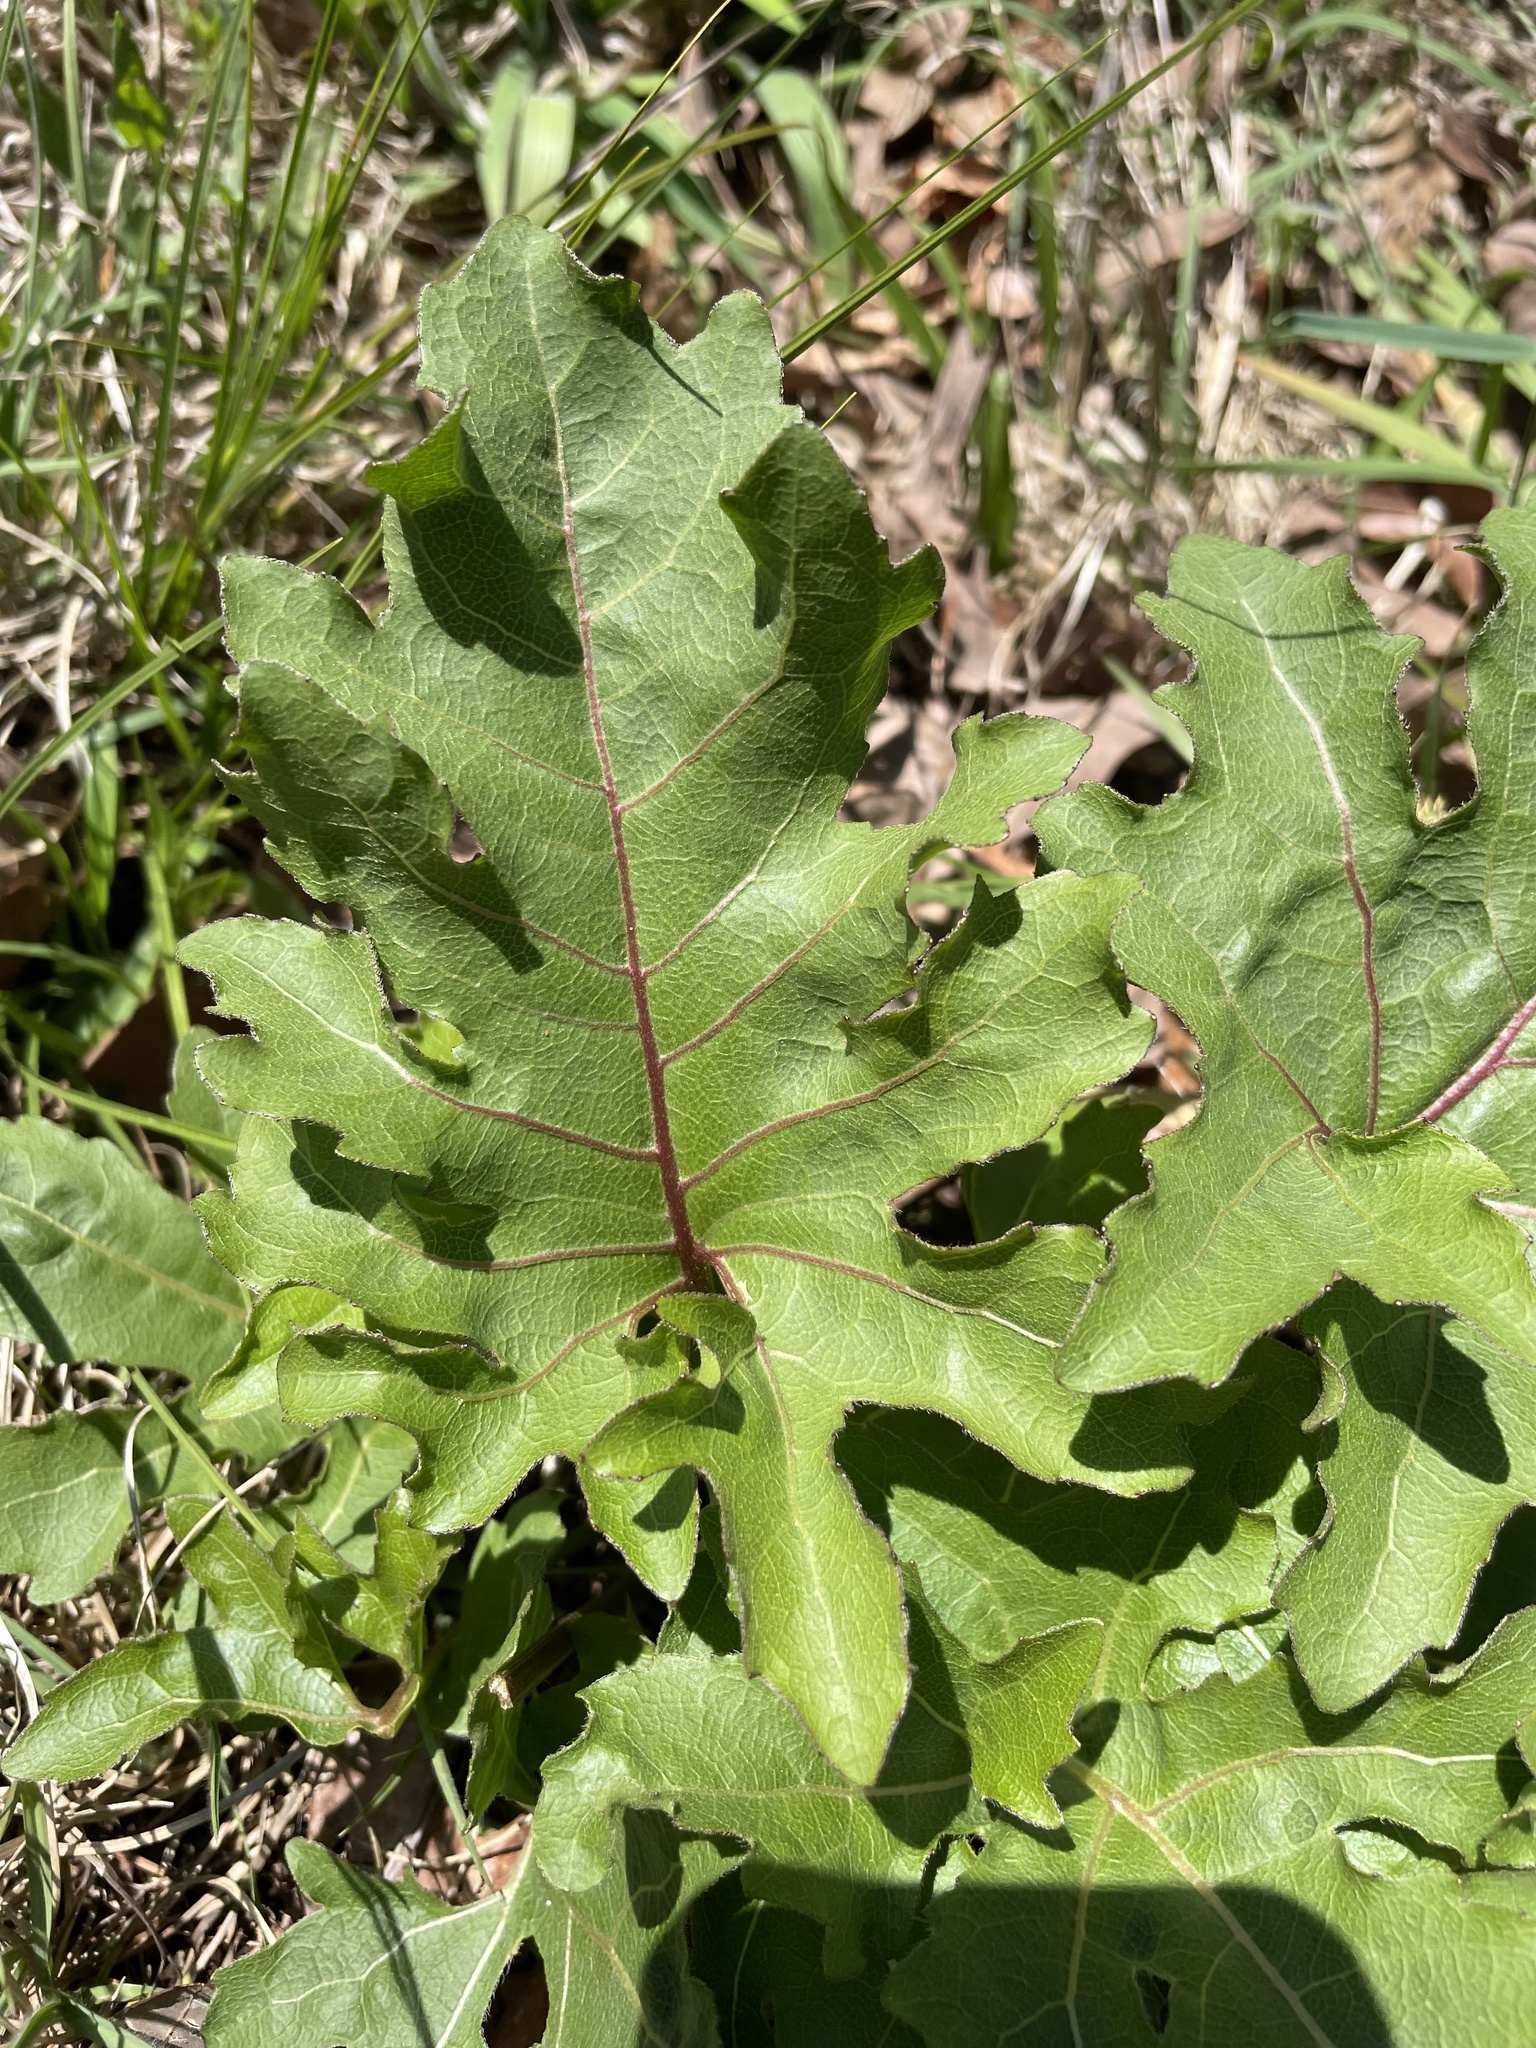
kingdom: Plantae
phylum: Tracheophyta
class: Magnoliopsida
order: Asterales
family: Asteraceae
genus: Silphium
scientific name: Silphium compositum
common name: Lesser basal-leaf rosinweed
